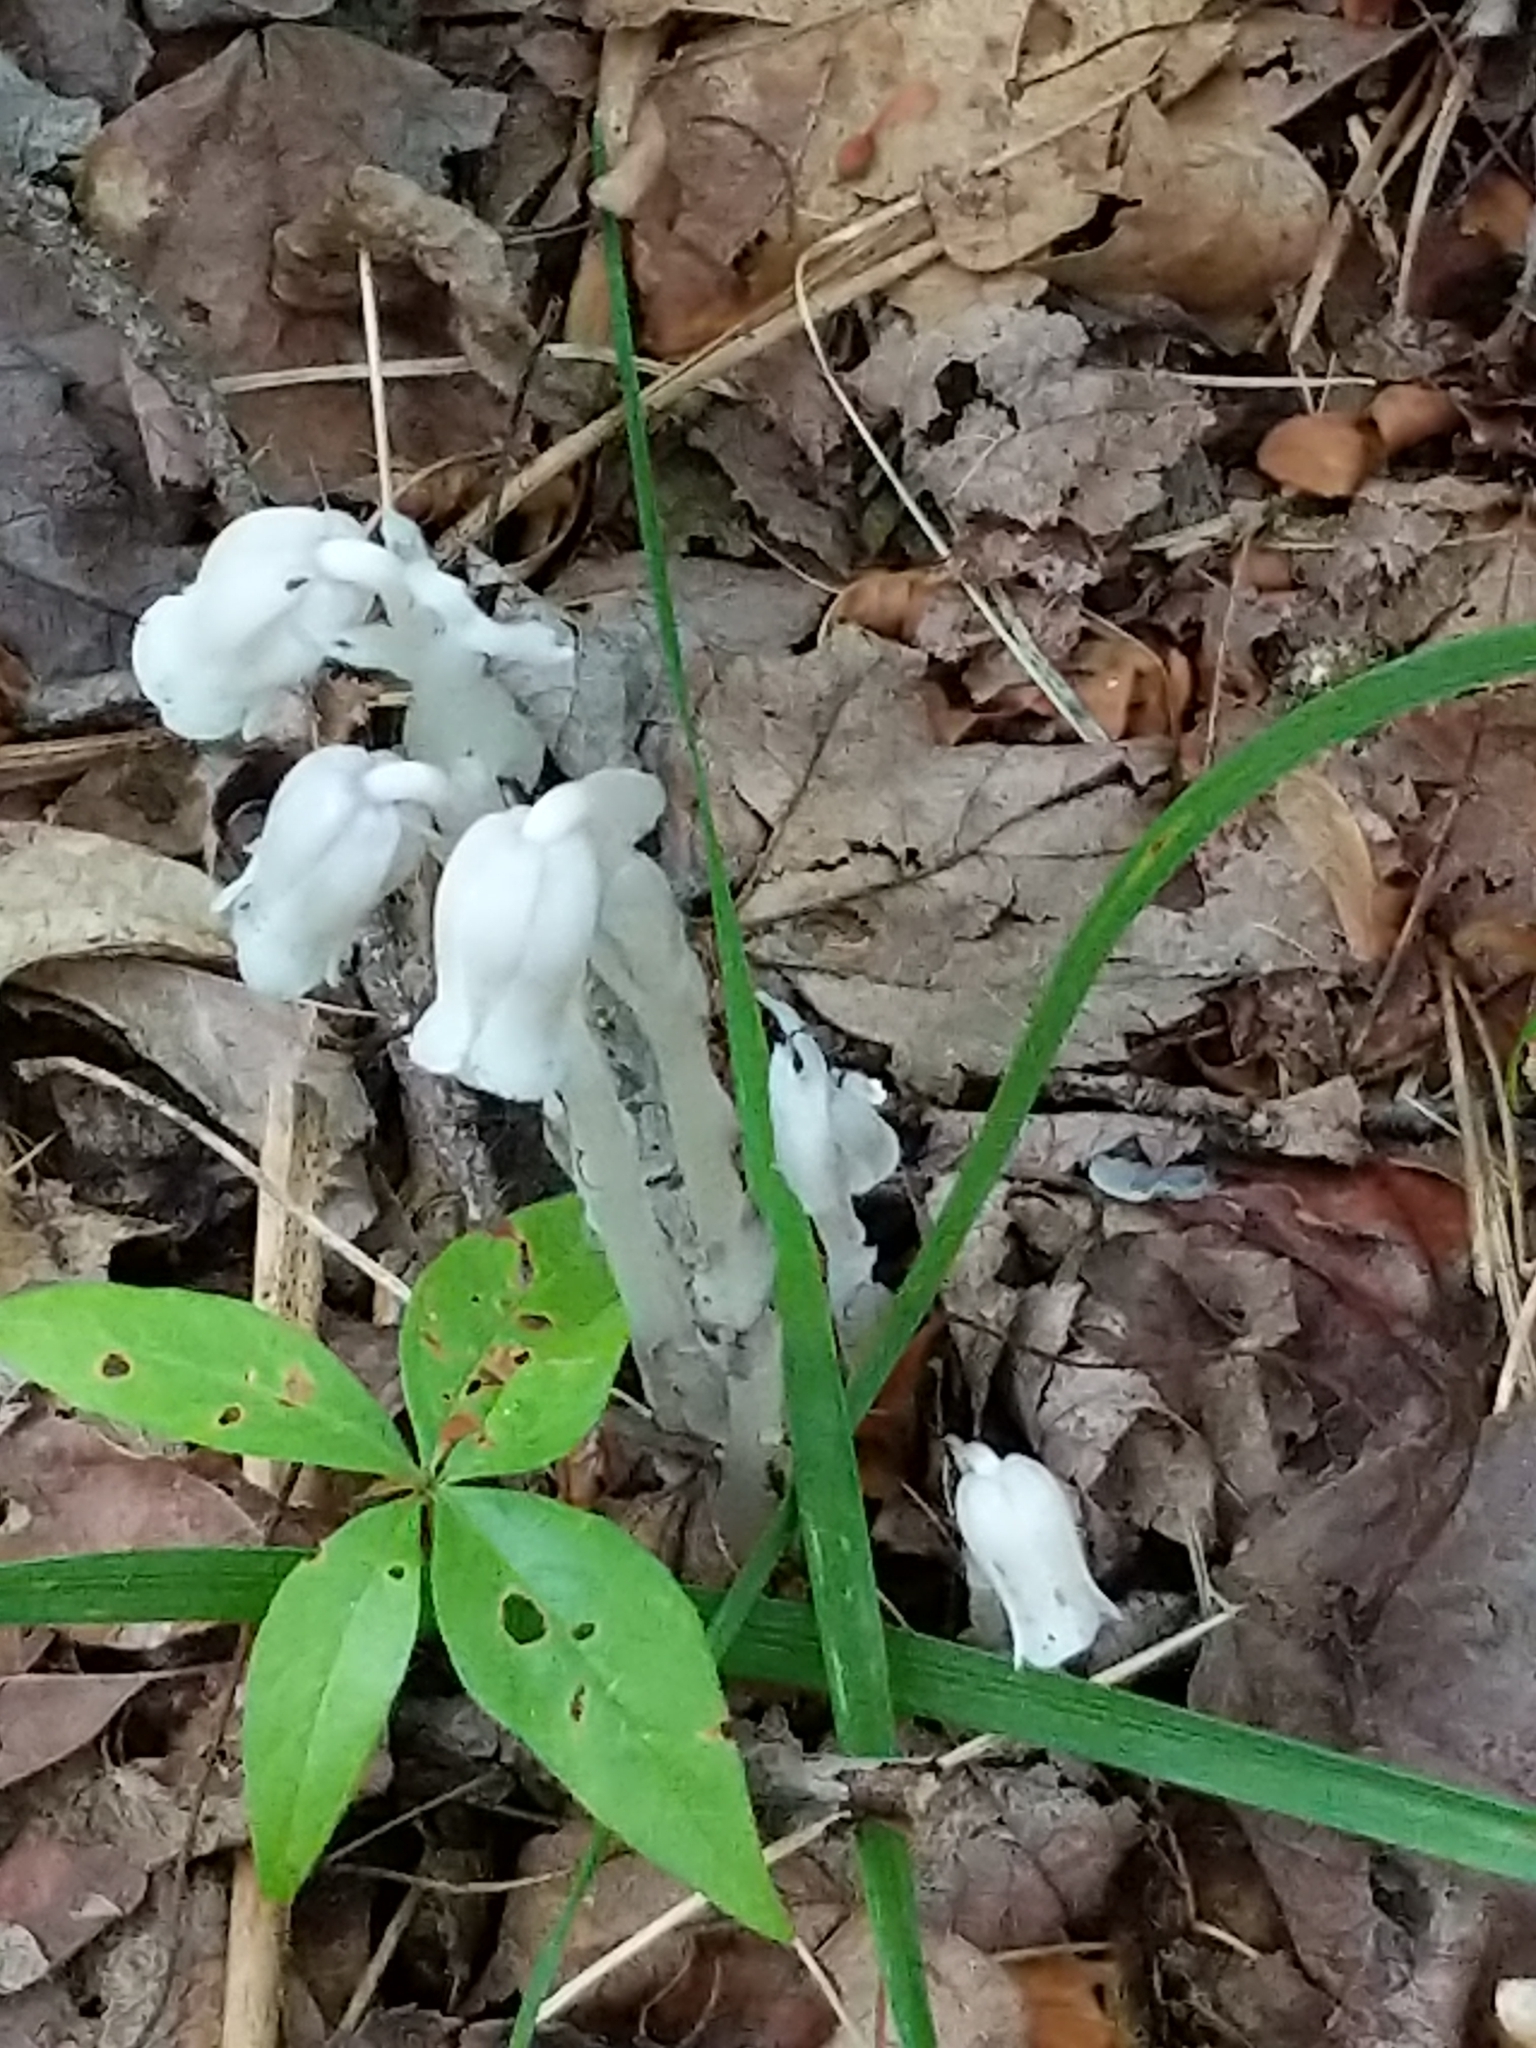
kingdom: Plantae
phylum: Tracheophyta
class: Magnoliopsida
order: Ericales
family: Ericaceae
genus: Monotropa
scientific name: Monotropa uniflora
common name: Convulsion root
